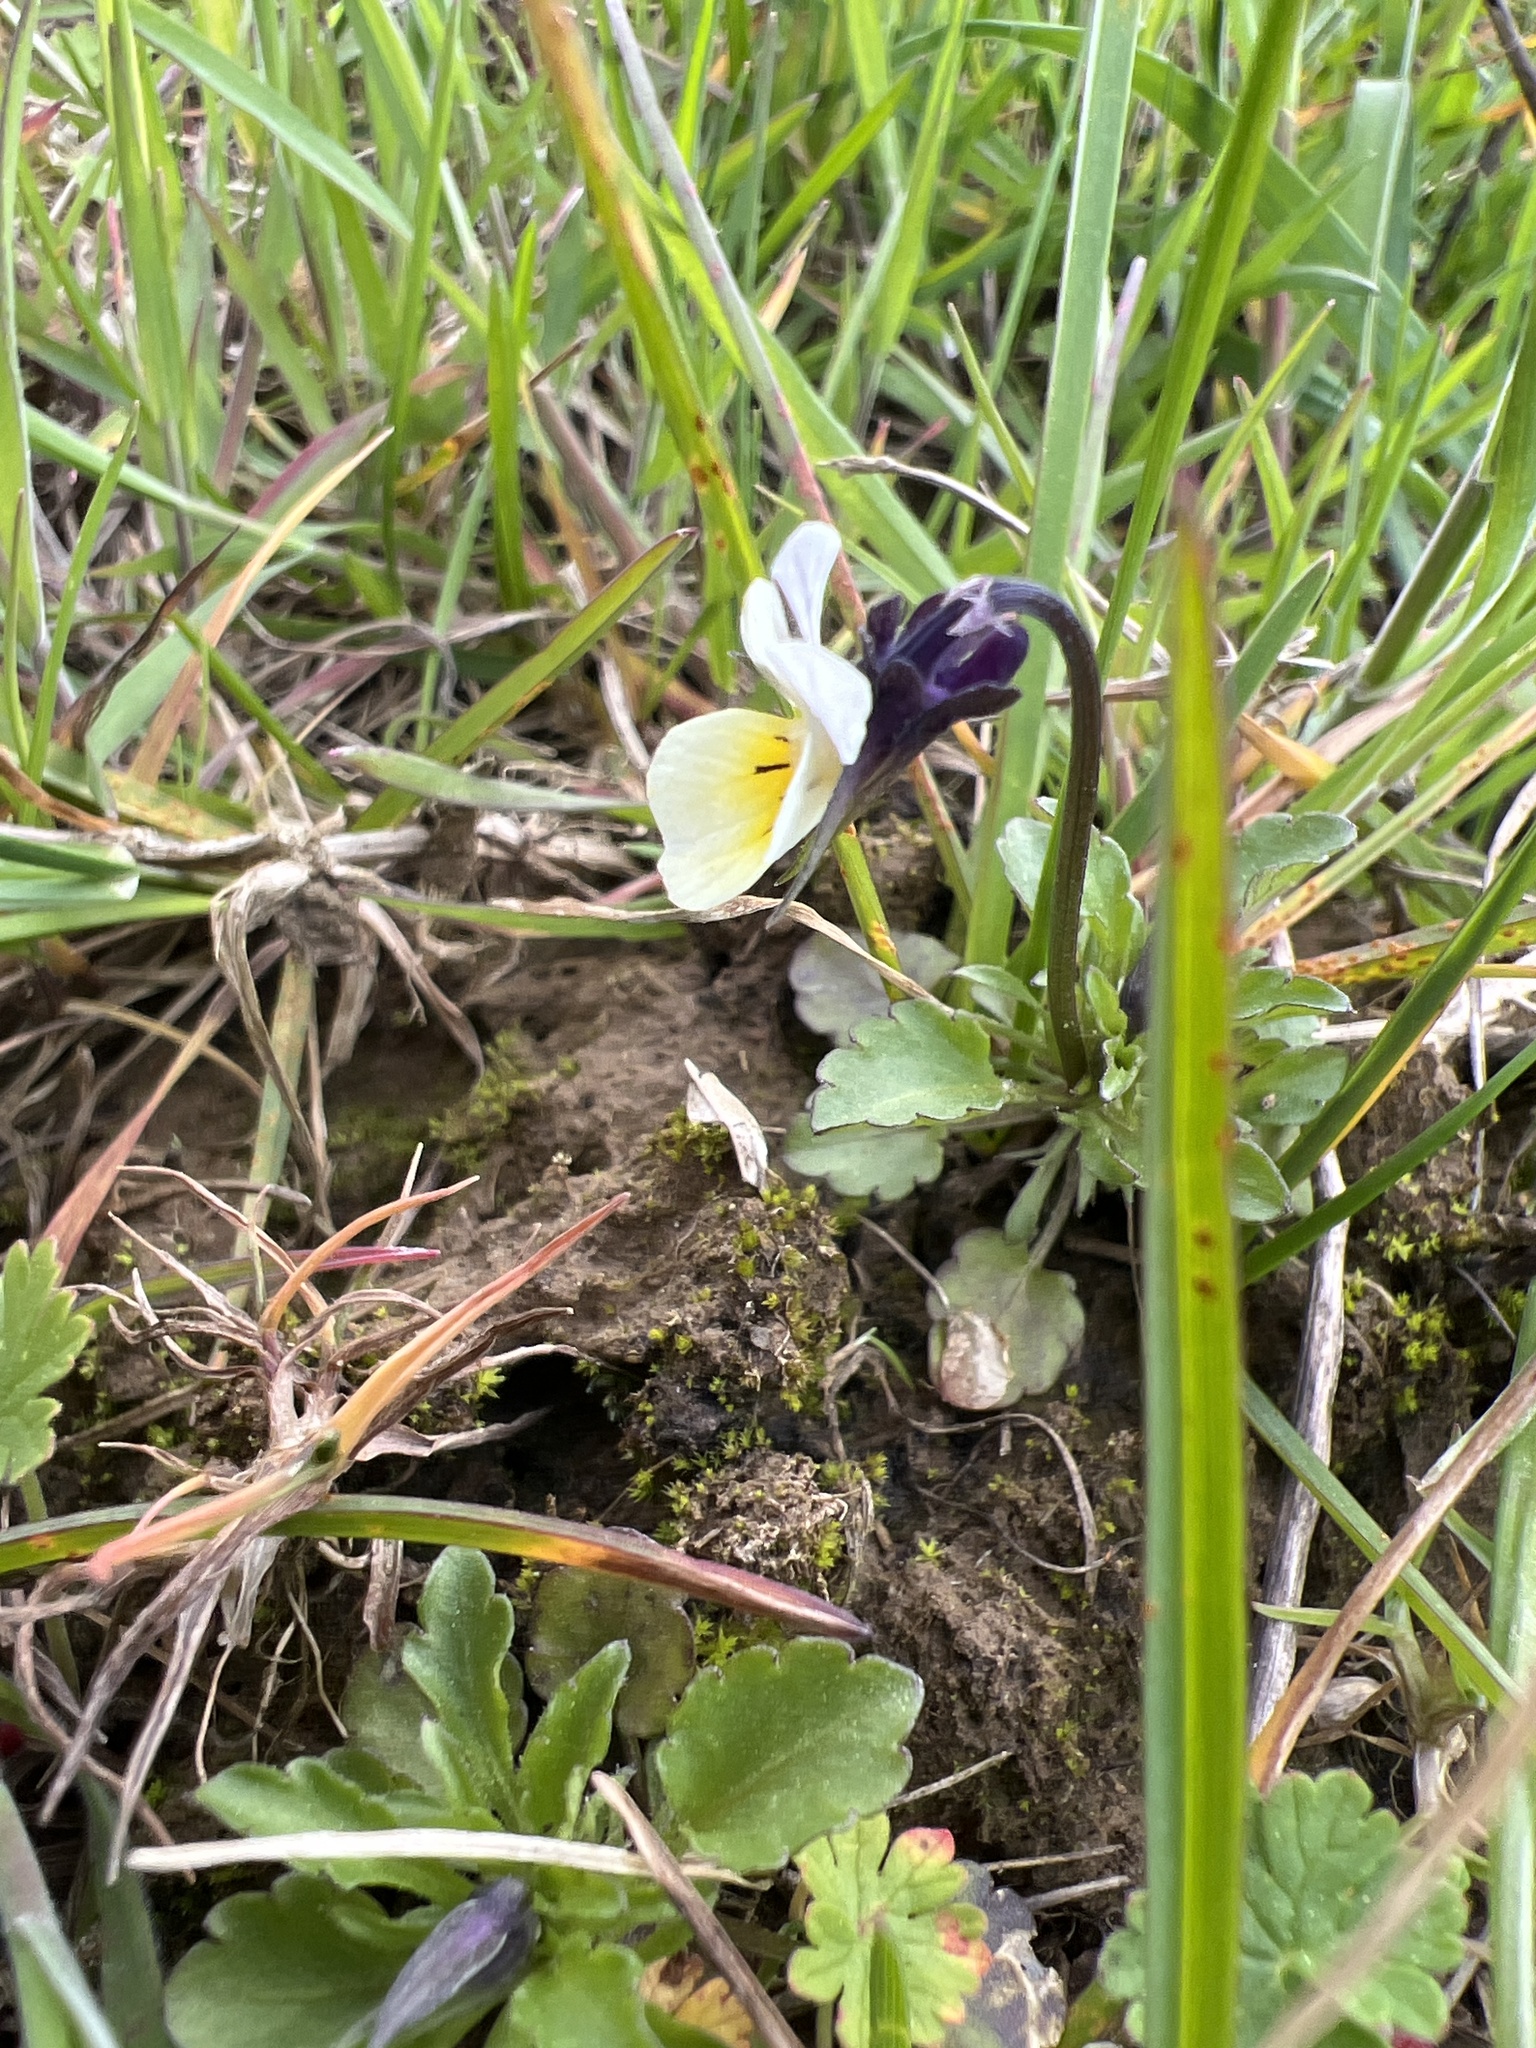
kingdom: Plantae
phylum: Tracheophyta
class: Magnoliopsida
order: Malpighiales
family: Violaceae
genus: Viola
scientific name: Viola arvensis
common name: Field pansy
